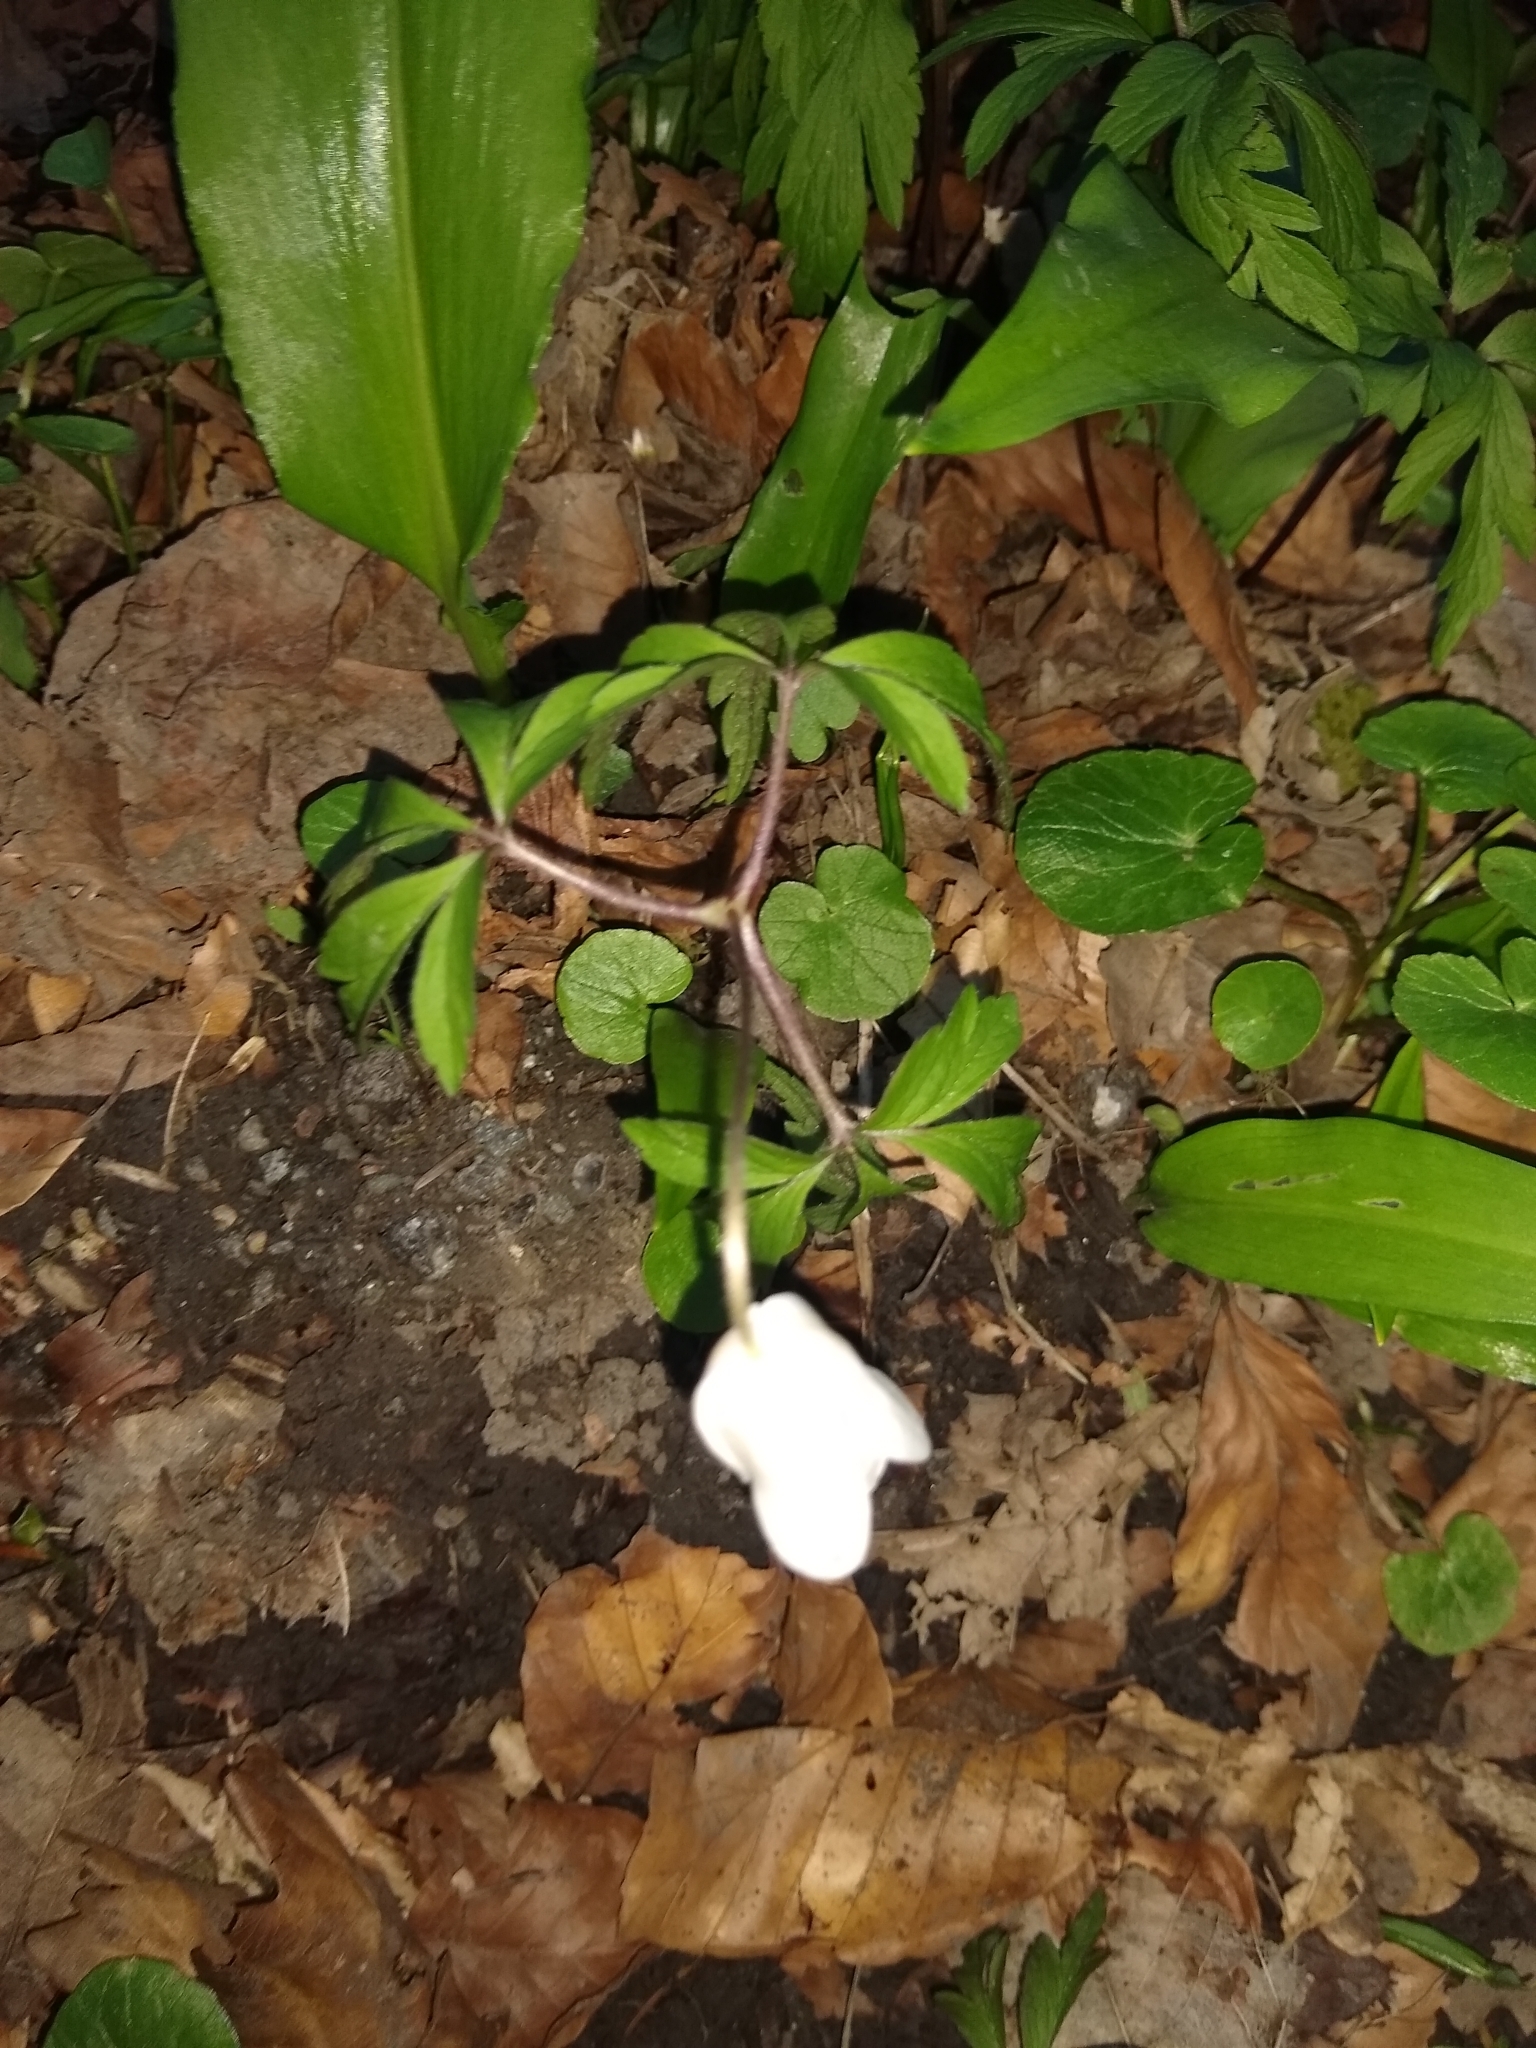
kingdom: Plantae
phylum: Tracheophyta
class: Magnoliopsida
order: Ranunculales
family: Ranunculaceae
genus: Anemone
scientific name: Anemone nemorosa
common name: Wood anemone
